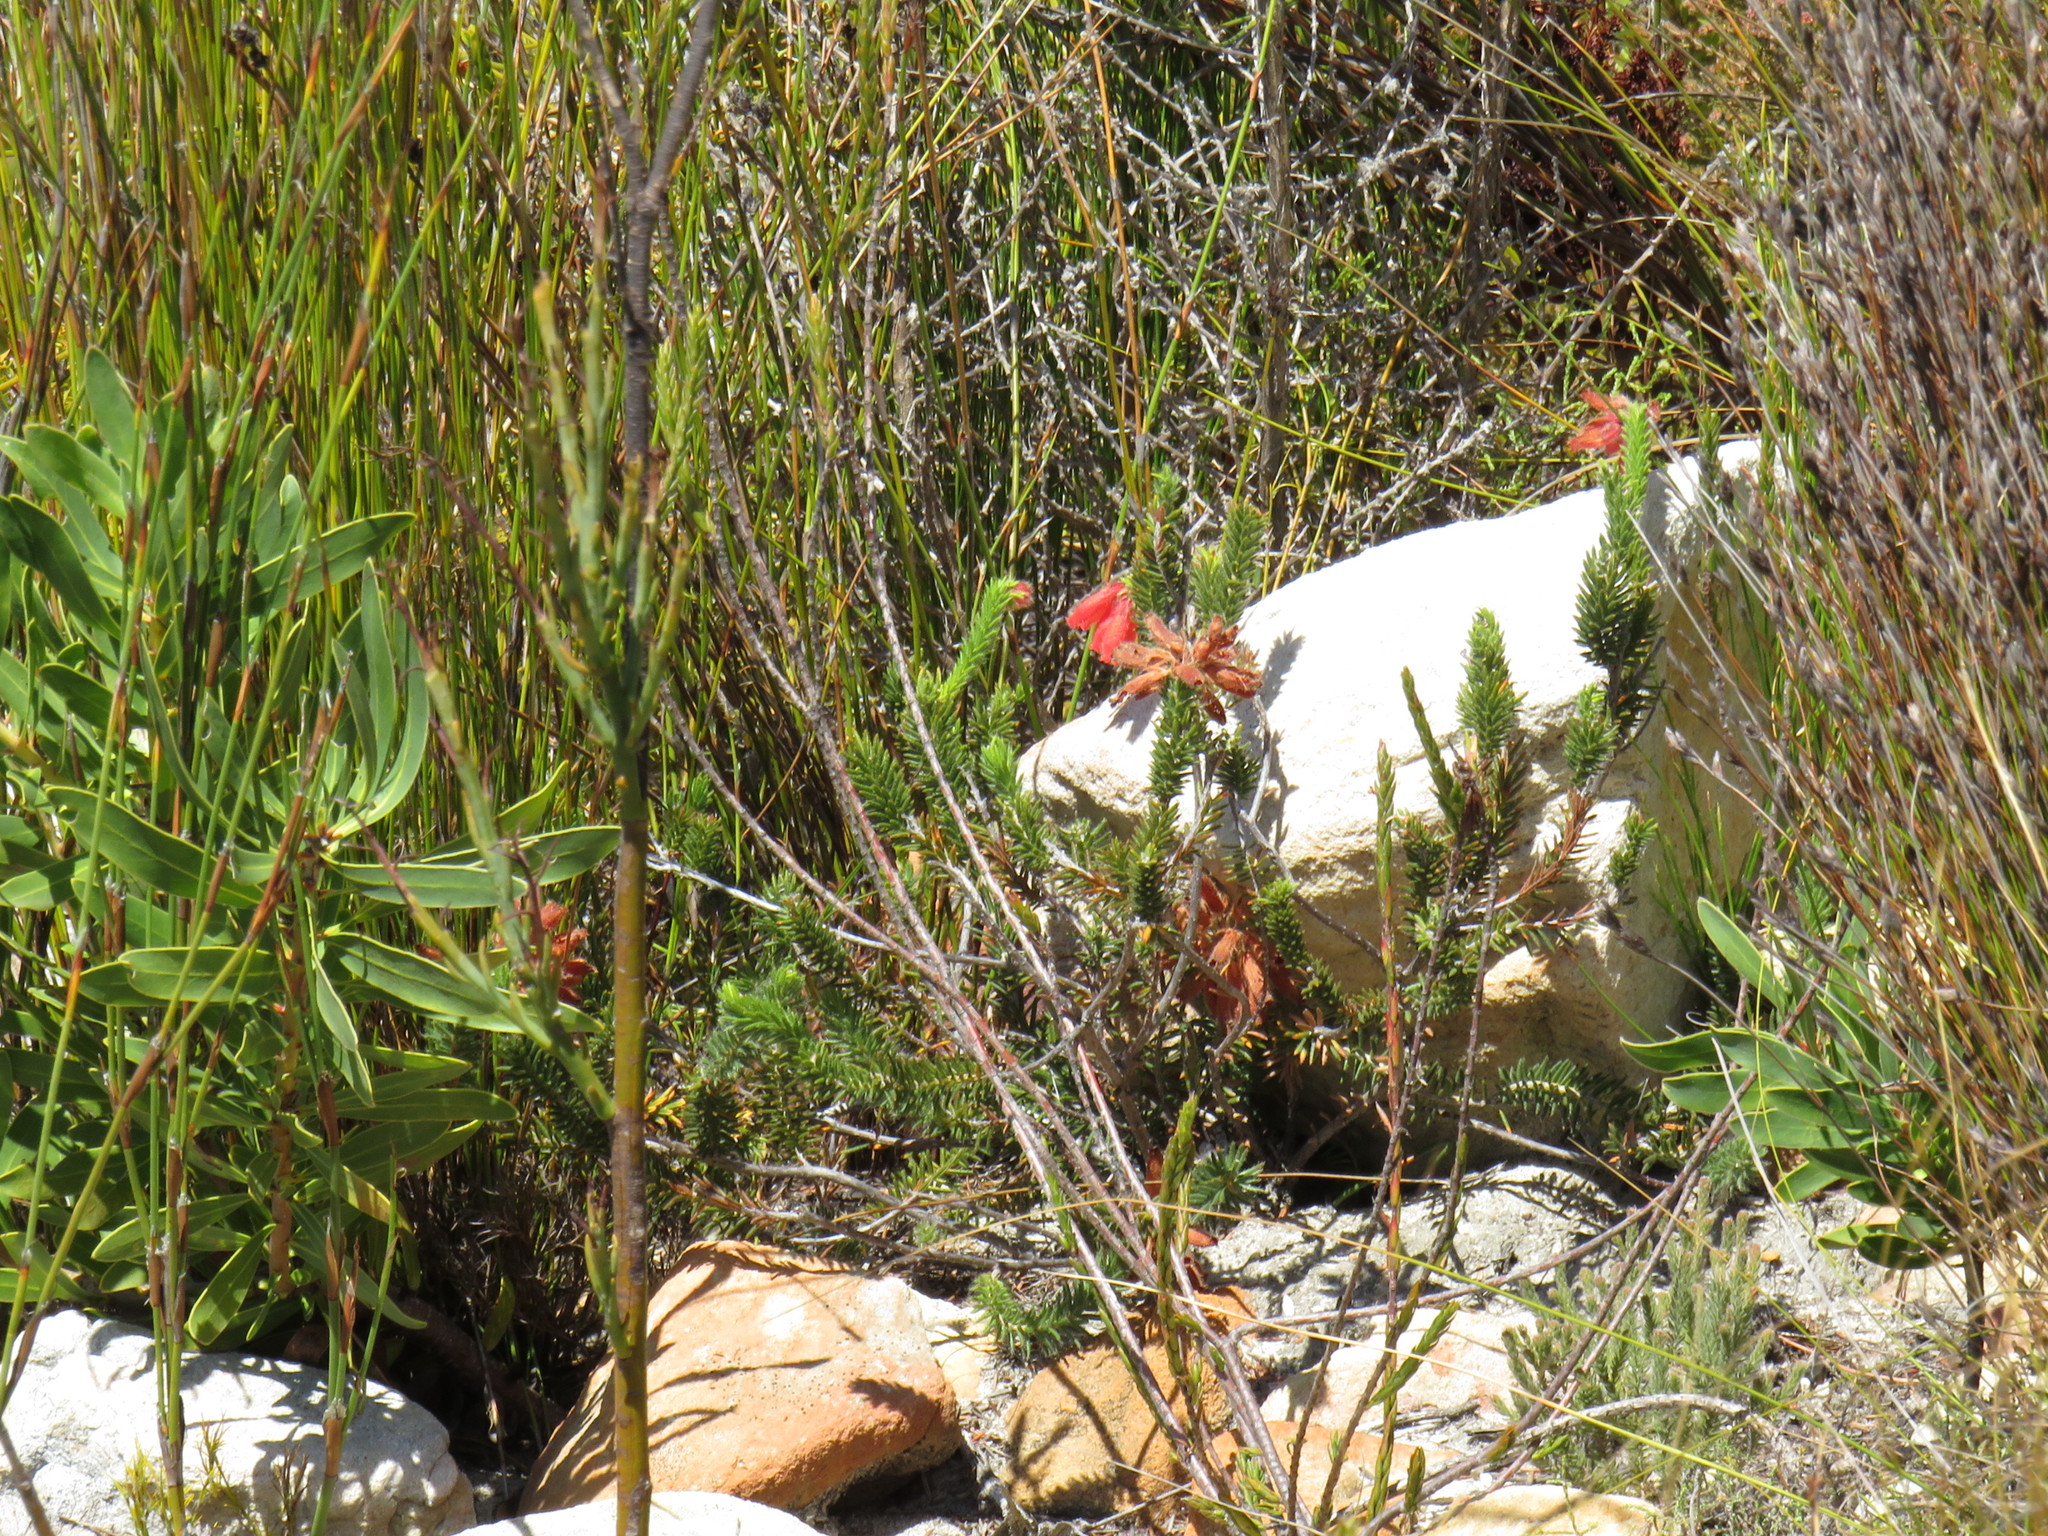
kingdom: Plantae
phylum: Tracheophyta
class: Magnoliopsida
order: Ericales
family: Ericaceae
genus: Erica
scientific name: Erica cerinthoides
